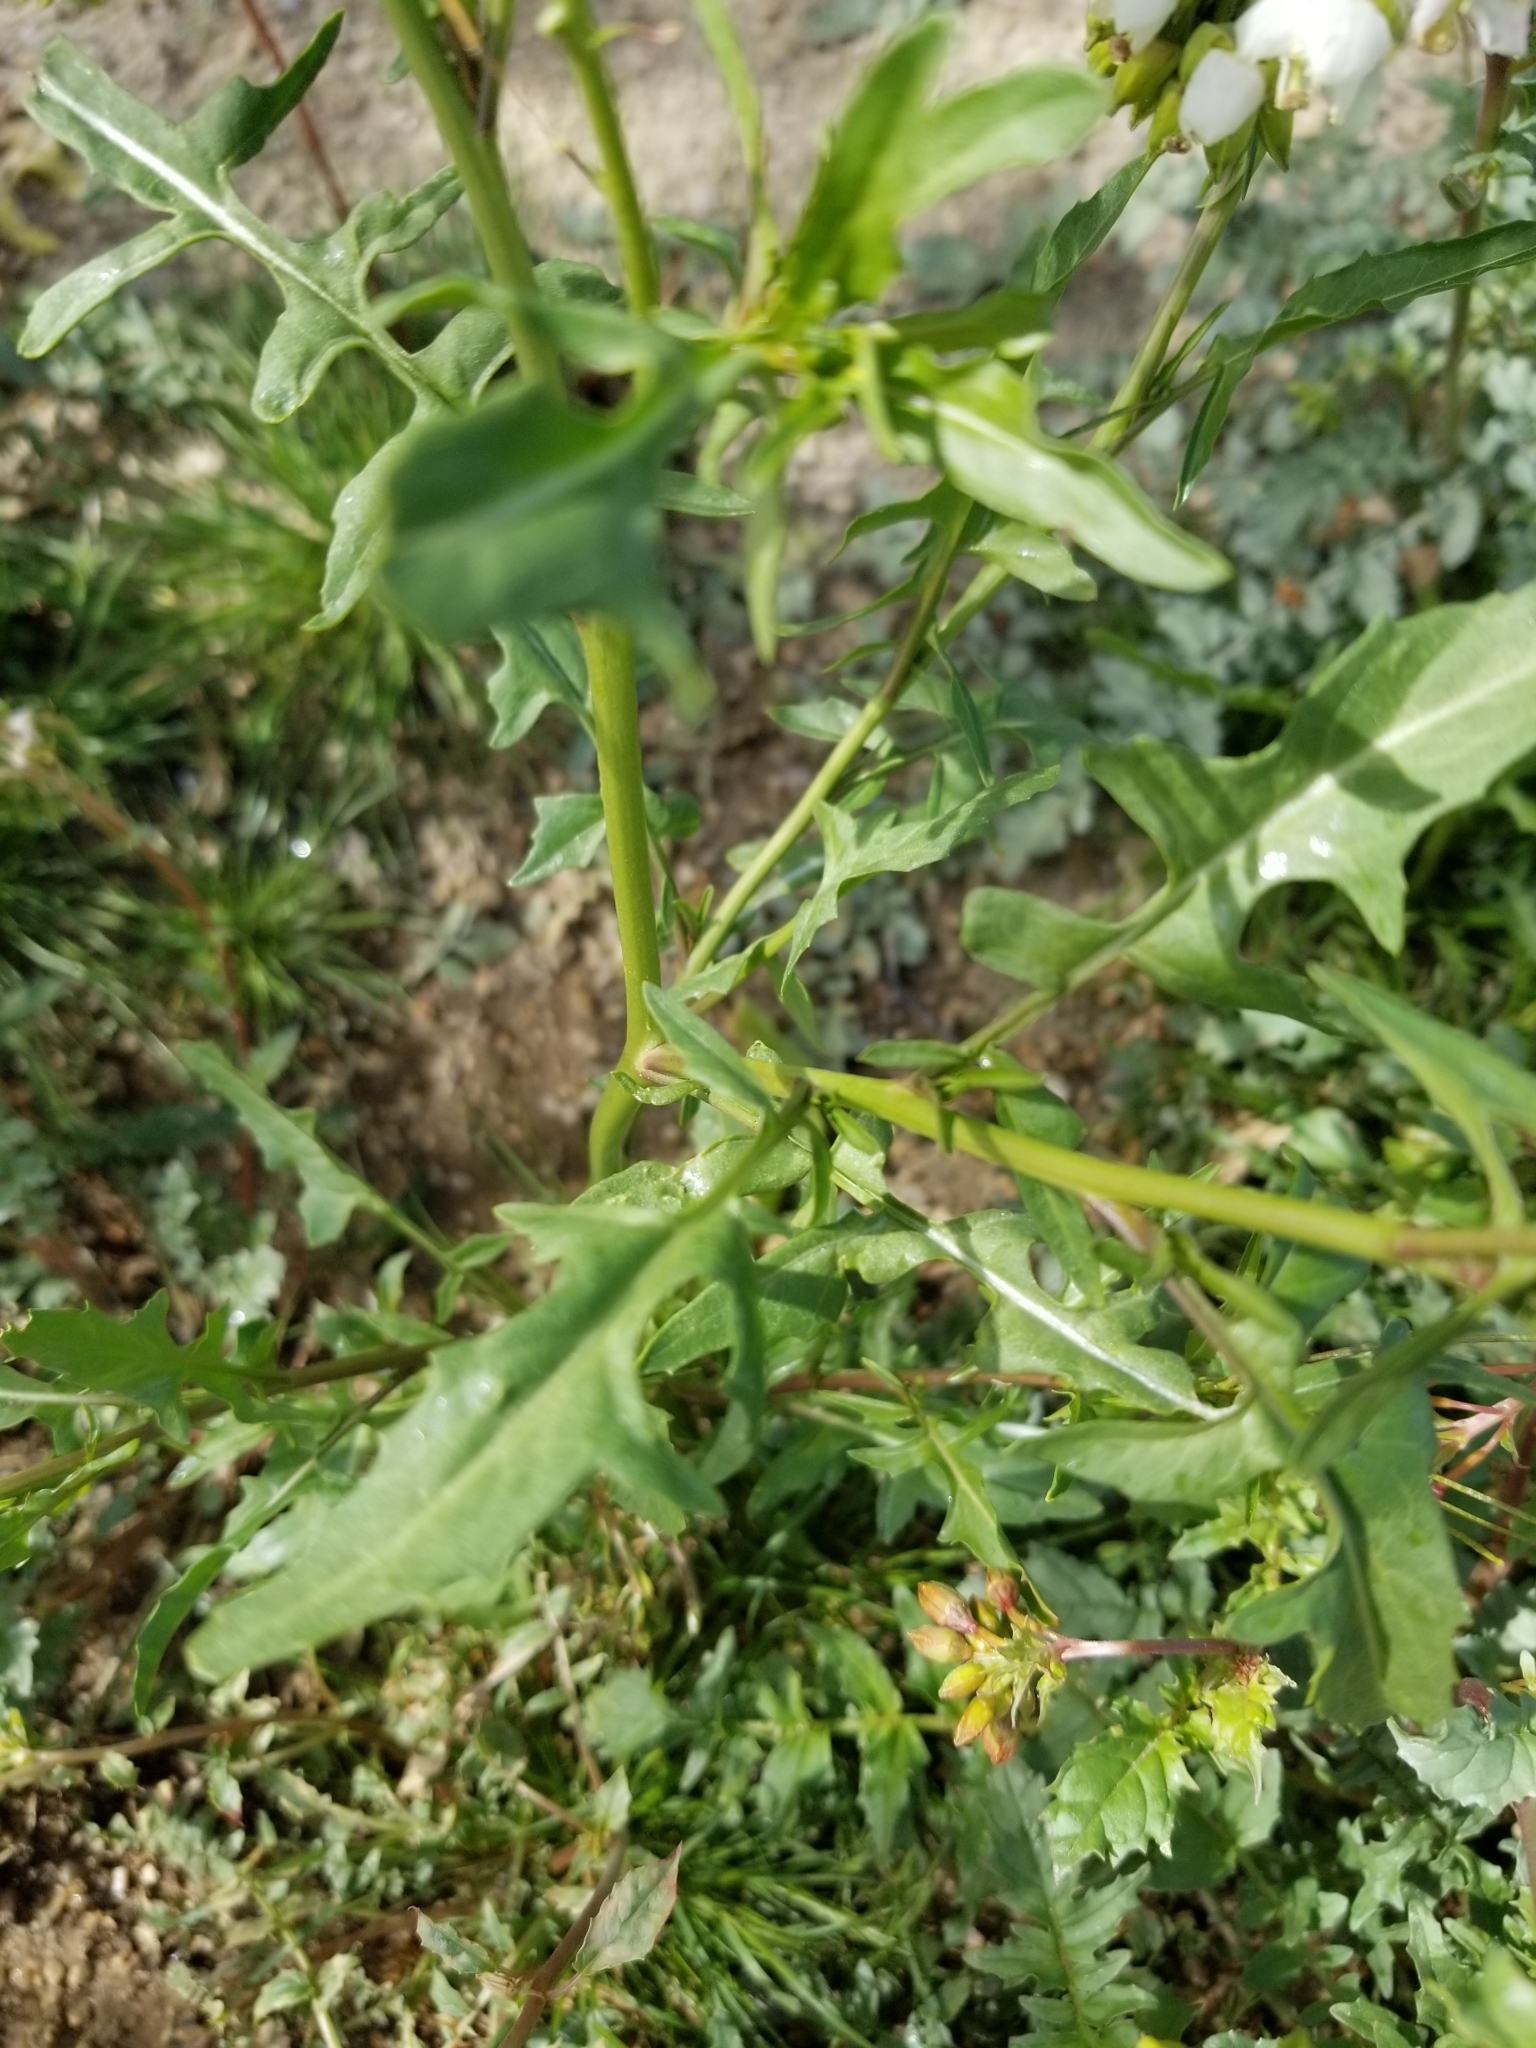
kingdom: Plantae
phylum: Tracheophyta
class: Magnoliopsida
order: Brassicales
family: Brassicaceae
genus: Sisymbrium
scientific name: Sisymbrium irio
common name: London rocket
